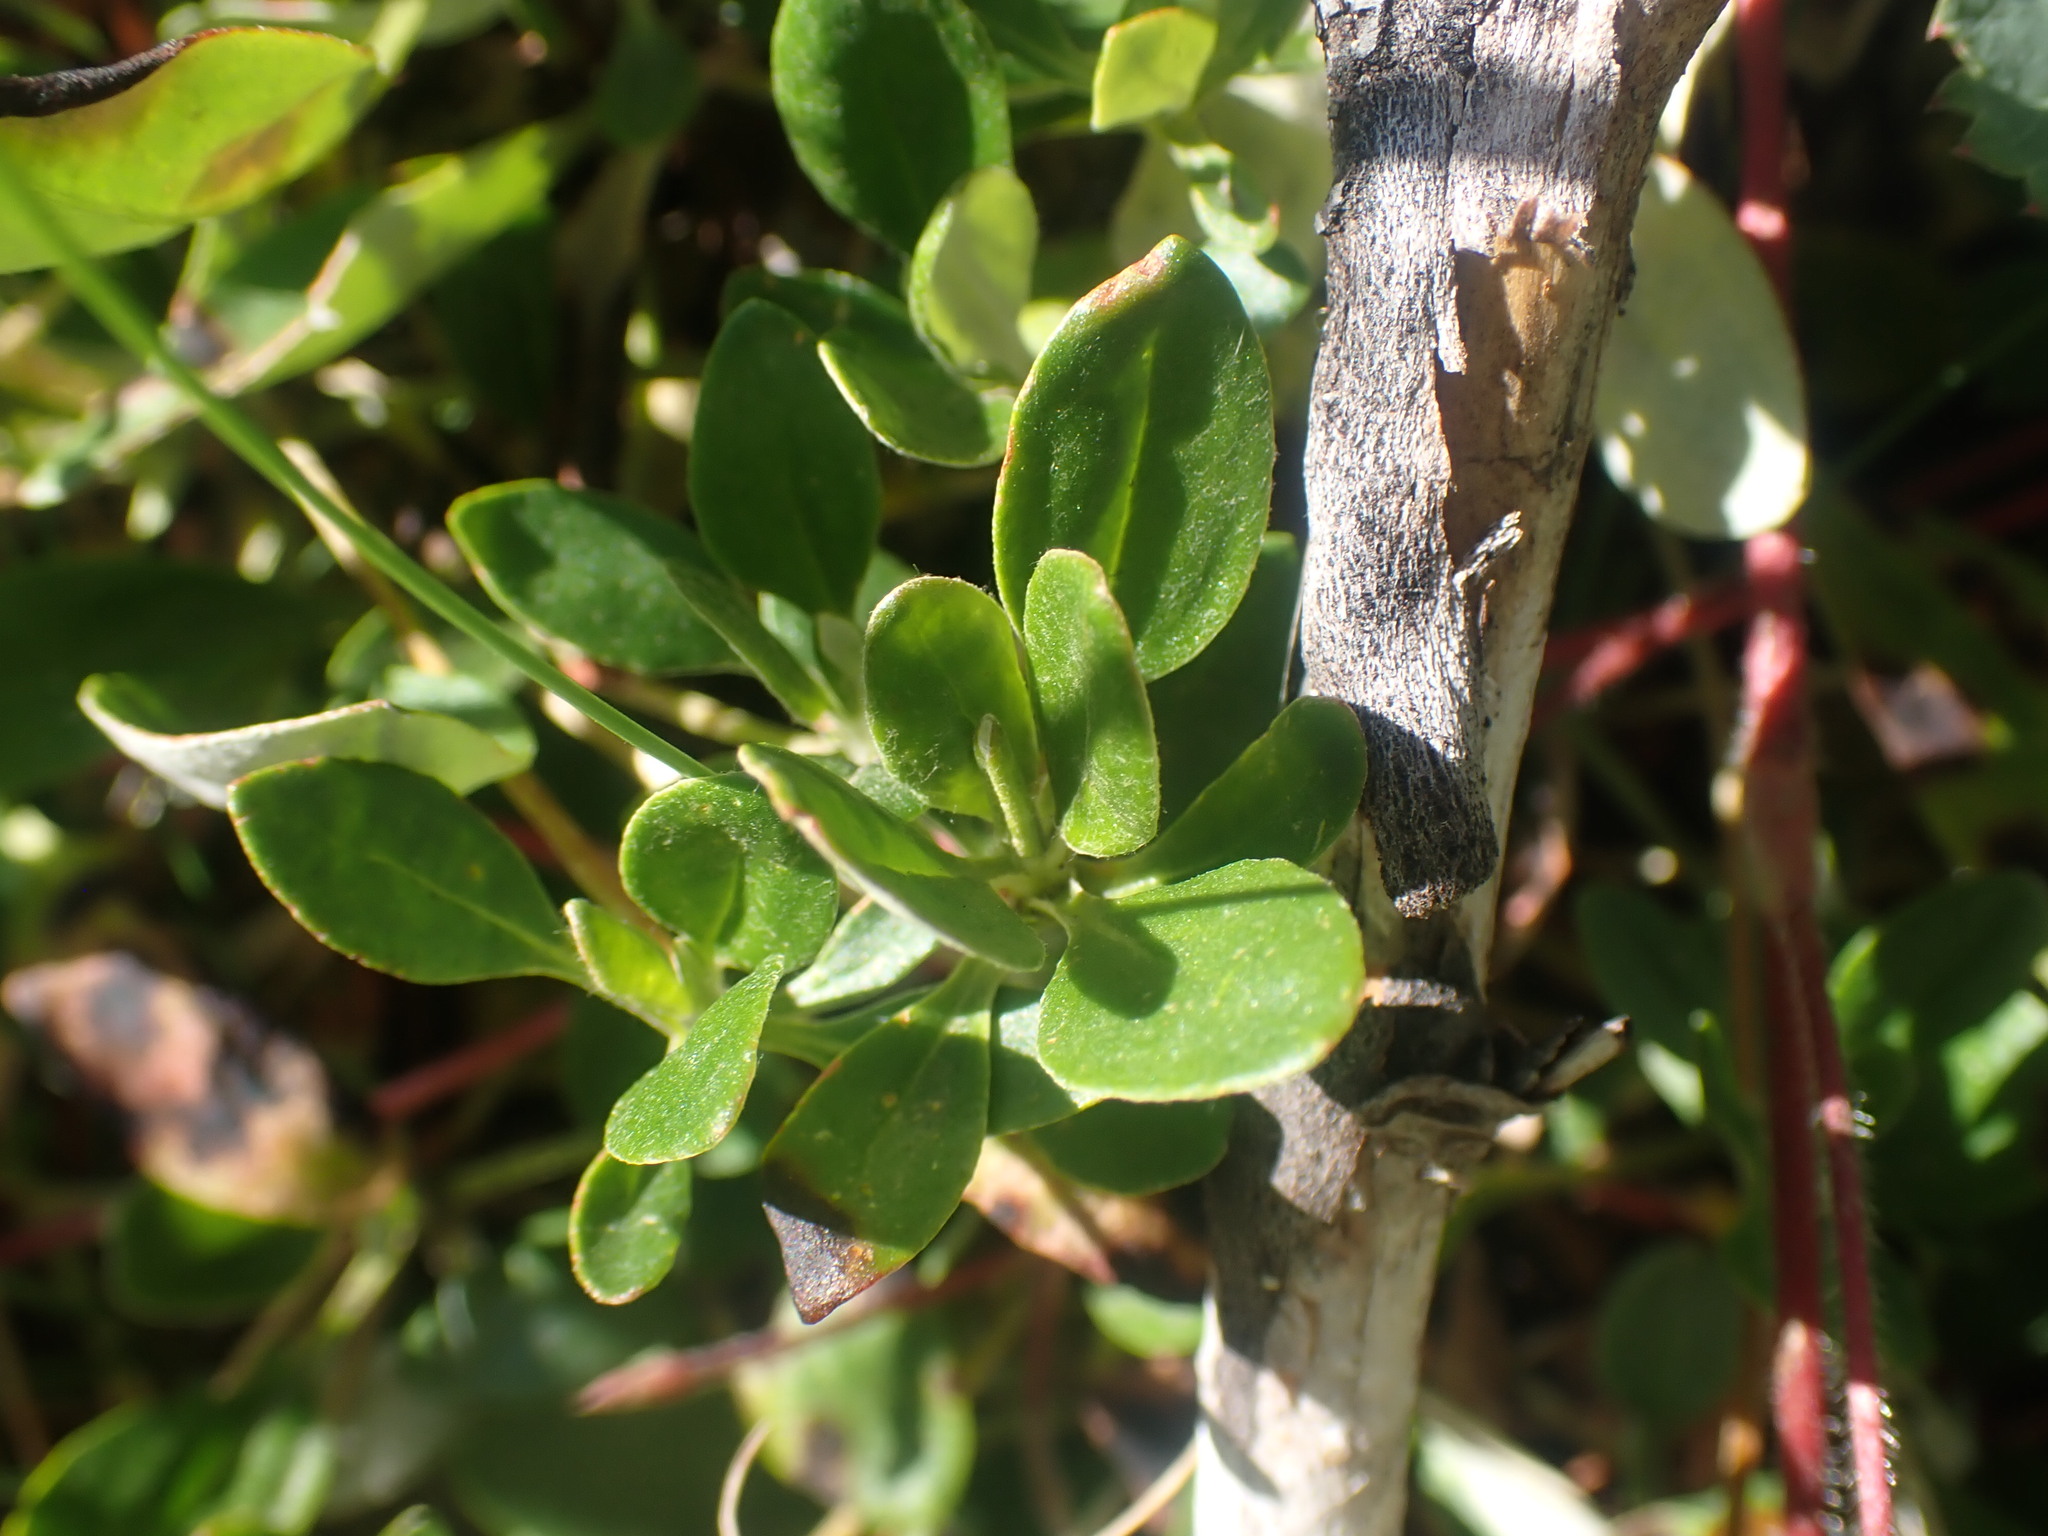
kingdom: Plantae
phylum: Tracheophyta
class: Magnoliopsida
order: Lamiales
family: Plantaginaceae
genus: Penstemon
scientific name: Penstemon ellipticus
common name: Alpine beardtongue
